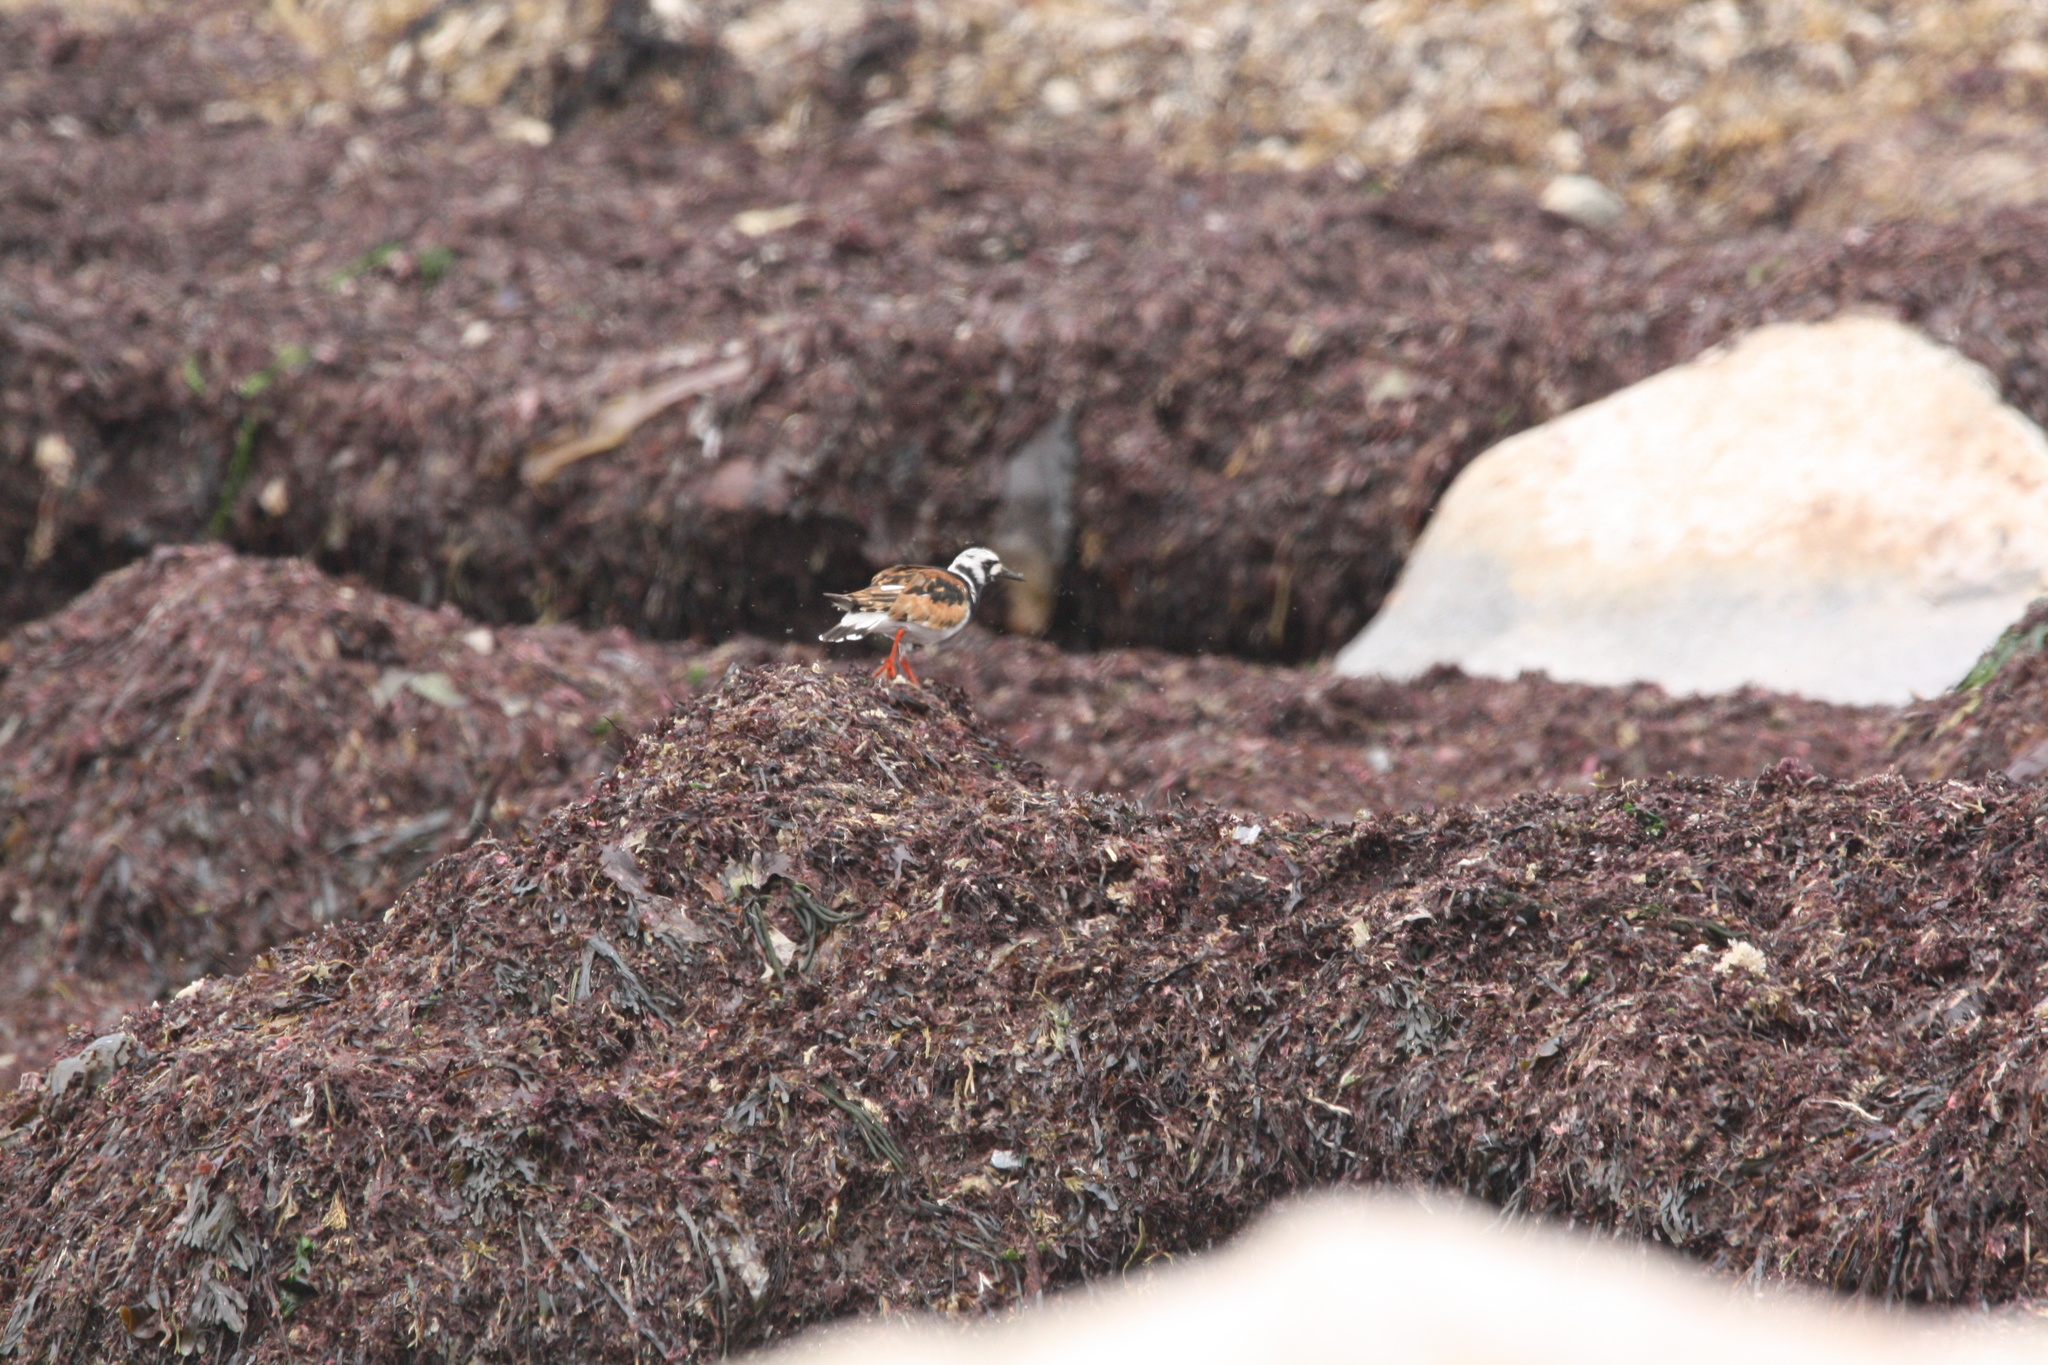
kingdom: Animalia
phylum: Chordata
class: Aves
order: Charadriiformes
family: Scolopacidae
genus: Arenaria
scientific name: Arenaria interpres
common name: Ruddy turnstone
